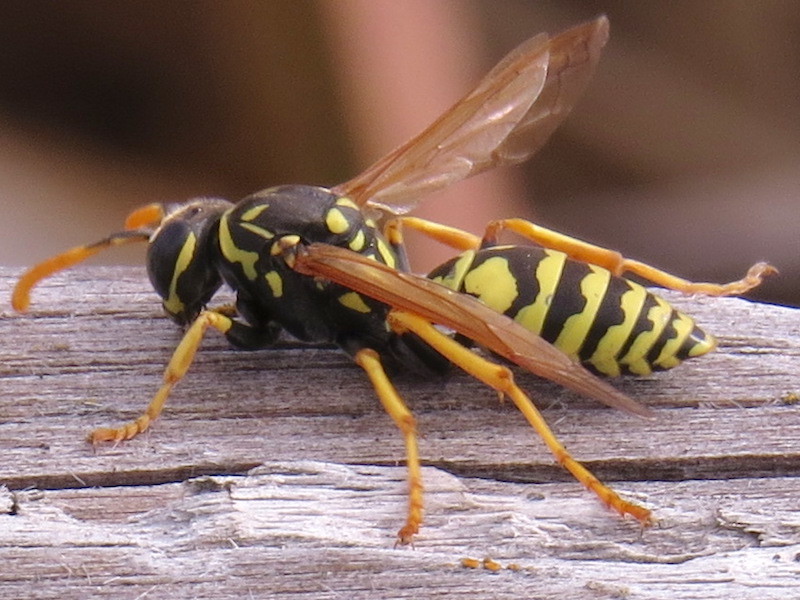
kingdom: Animalia
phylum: Arthropoda
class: Insecta
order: Hymenoptera
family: Eumenidae
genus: Polistes
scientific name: Polistes dominula
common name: Paper wasp
